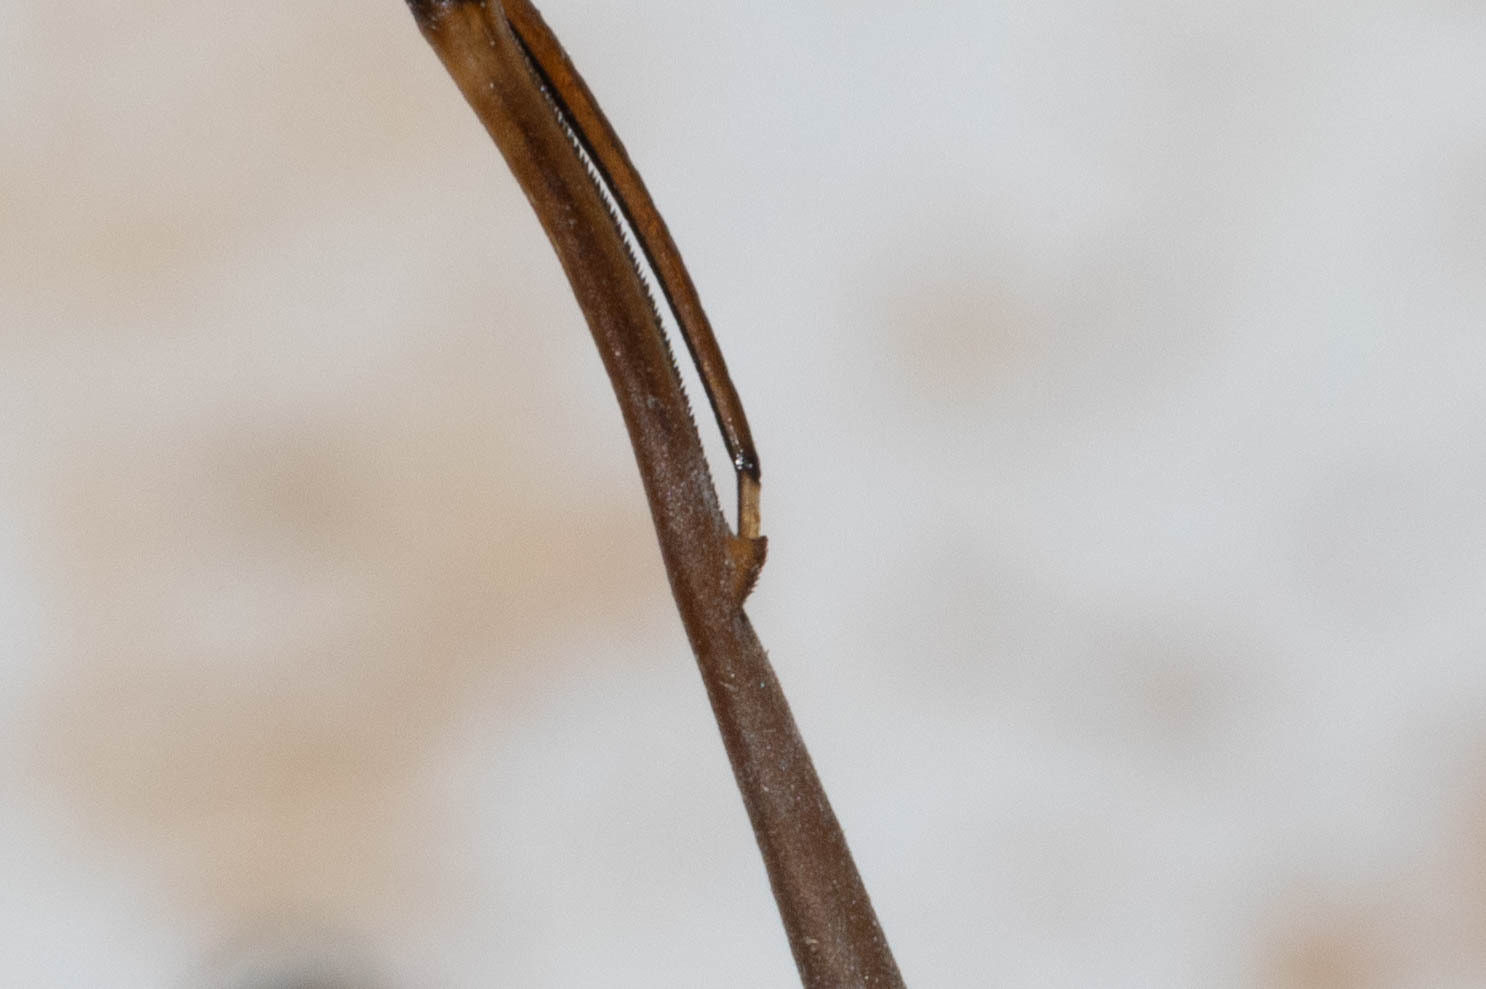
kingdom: Animalia
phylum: Arthropoda
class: Insecta
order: Hemiptera
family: Nepidae
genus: Ranatra
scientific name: Ranatra nigra
